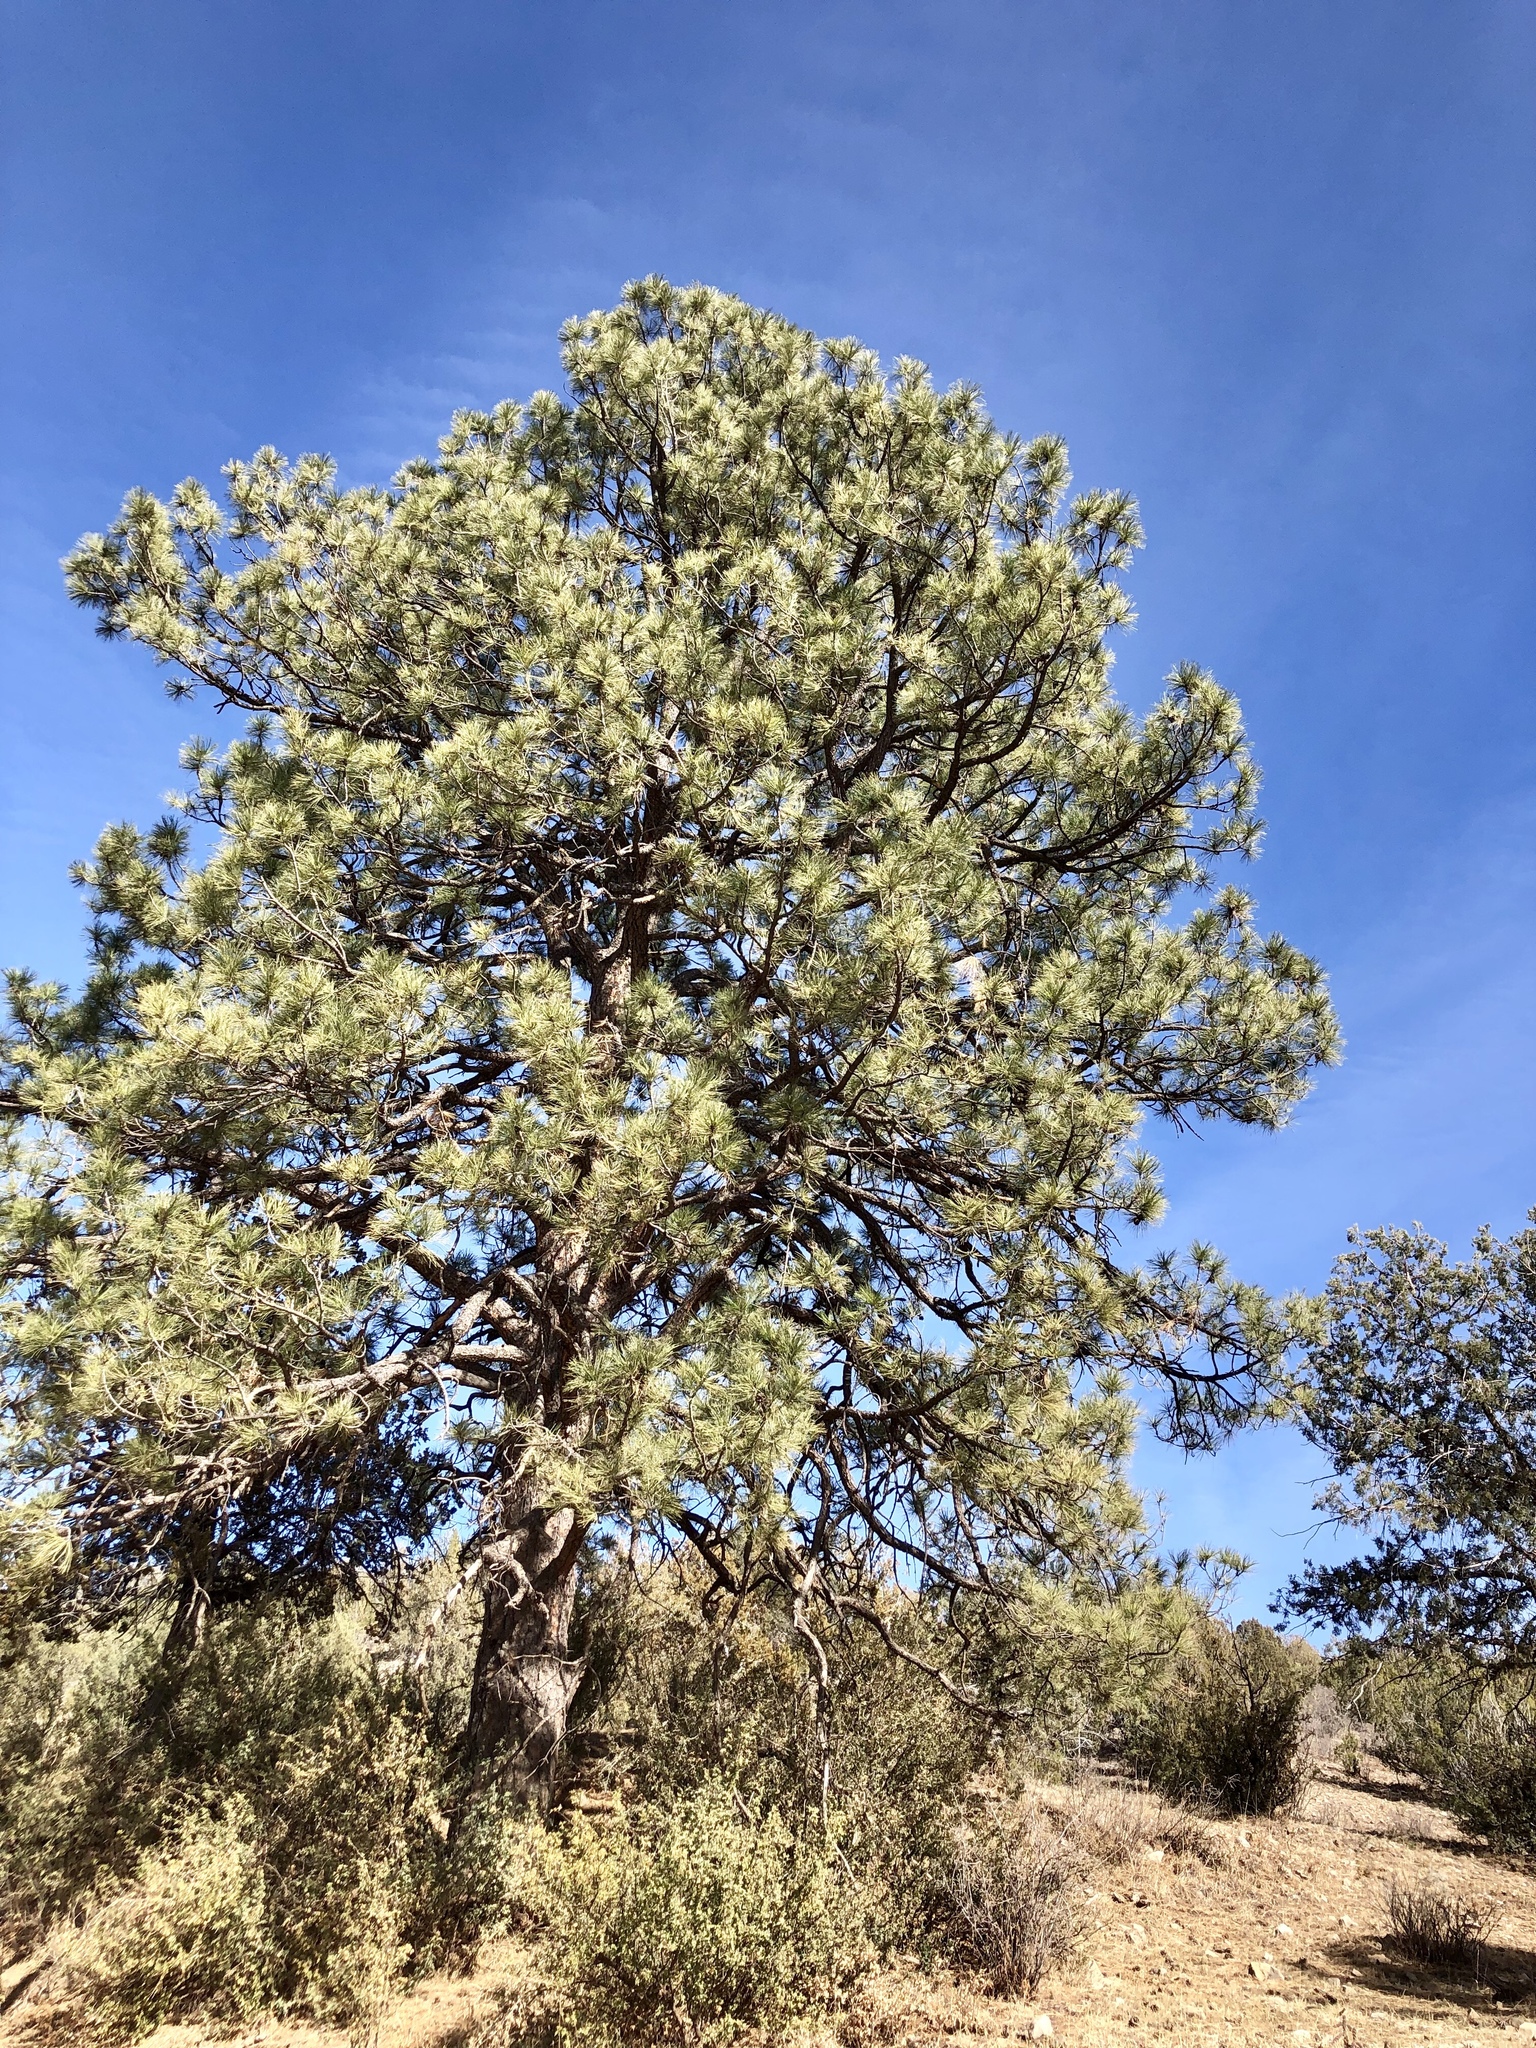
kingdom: Plantae
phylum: Tracheophyta
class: Pinopsida
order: Pinales
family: Pinaceae
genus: Pinus
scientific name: Pinus ponderosa
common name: Western yellow-pine
